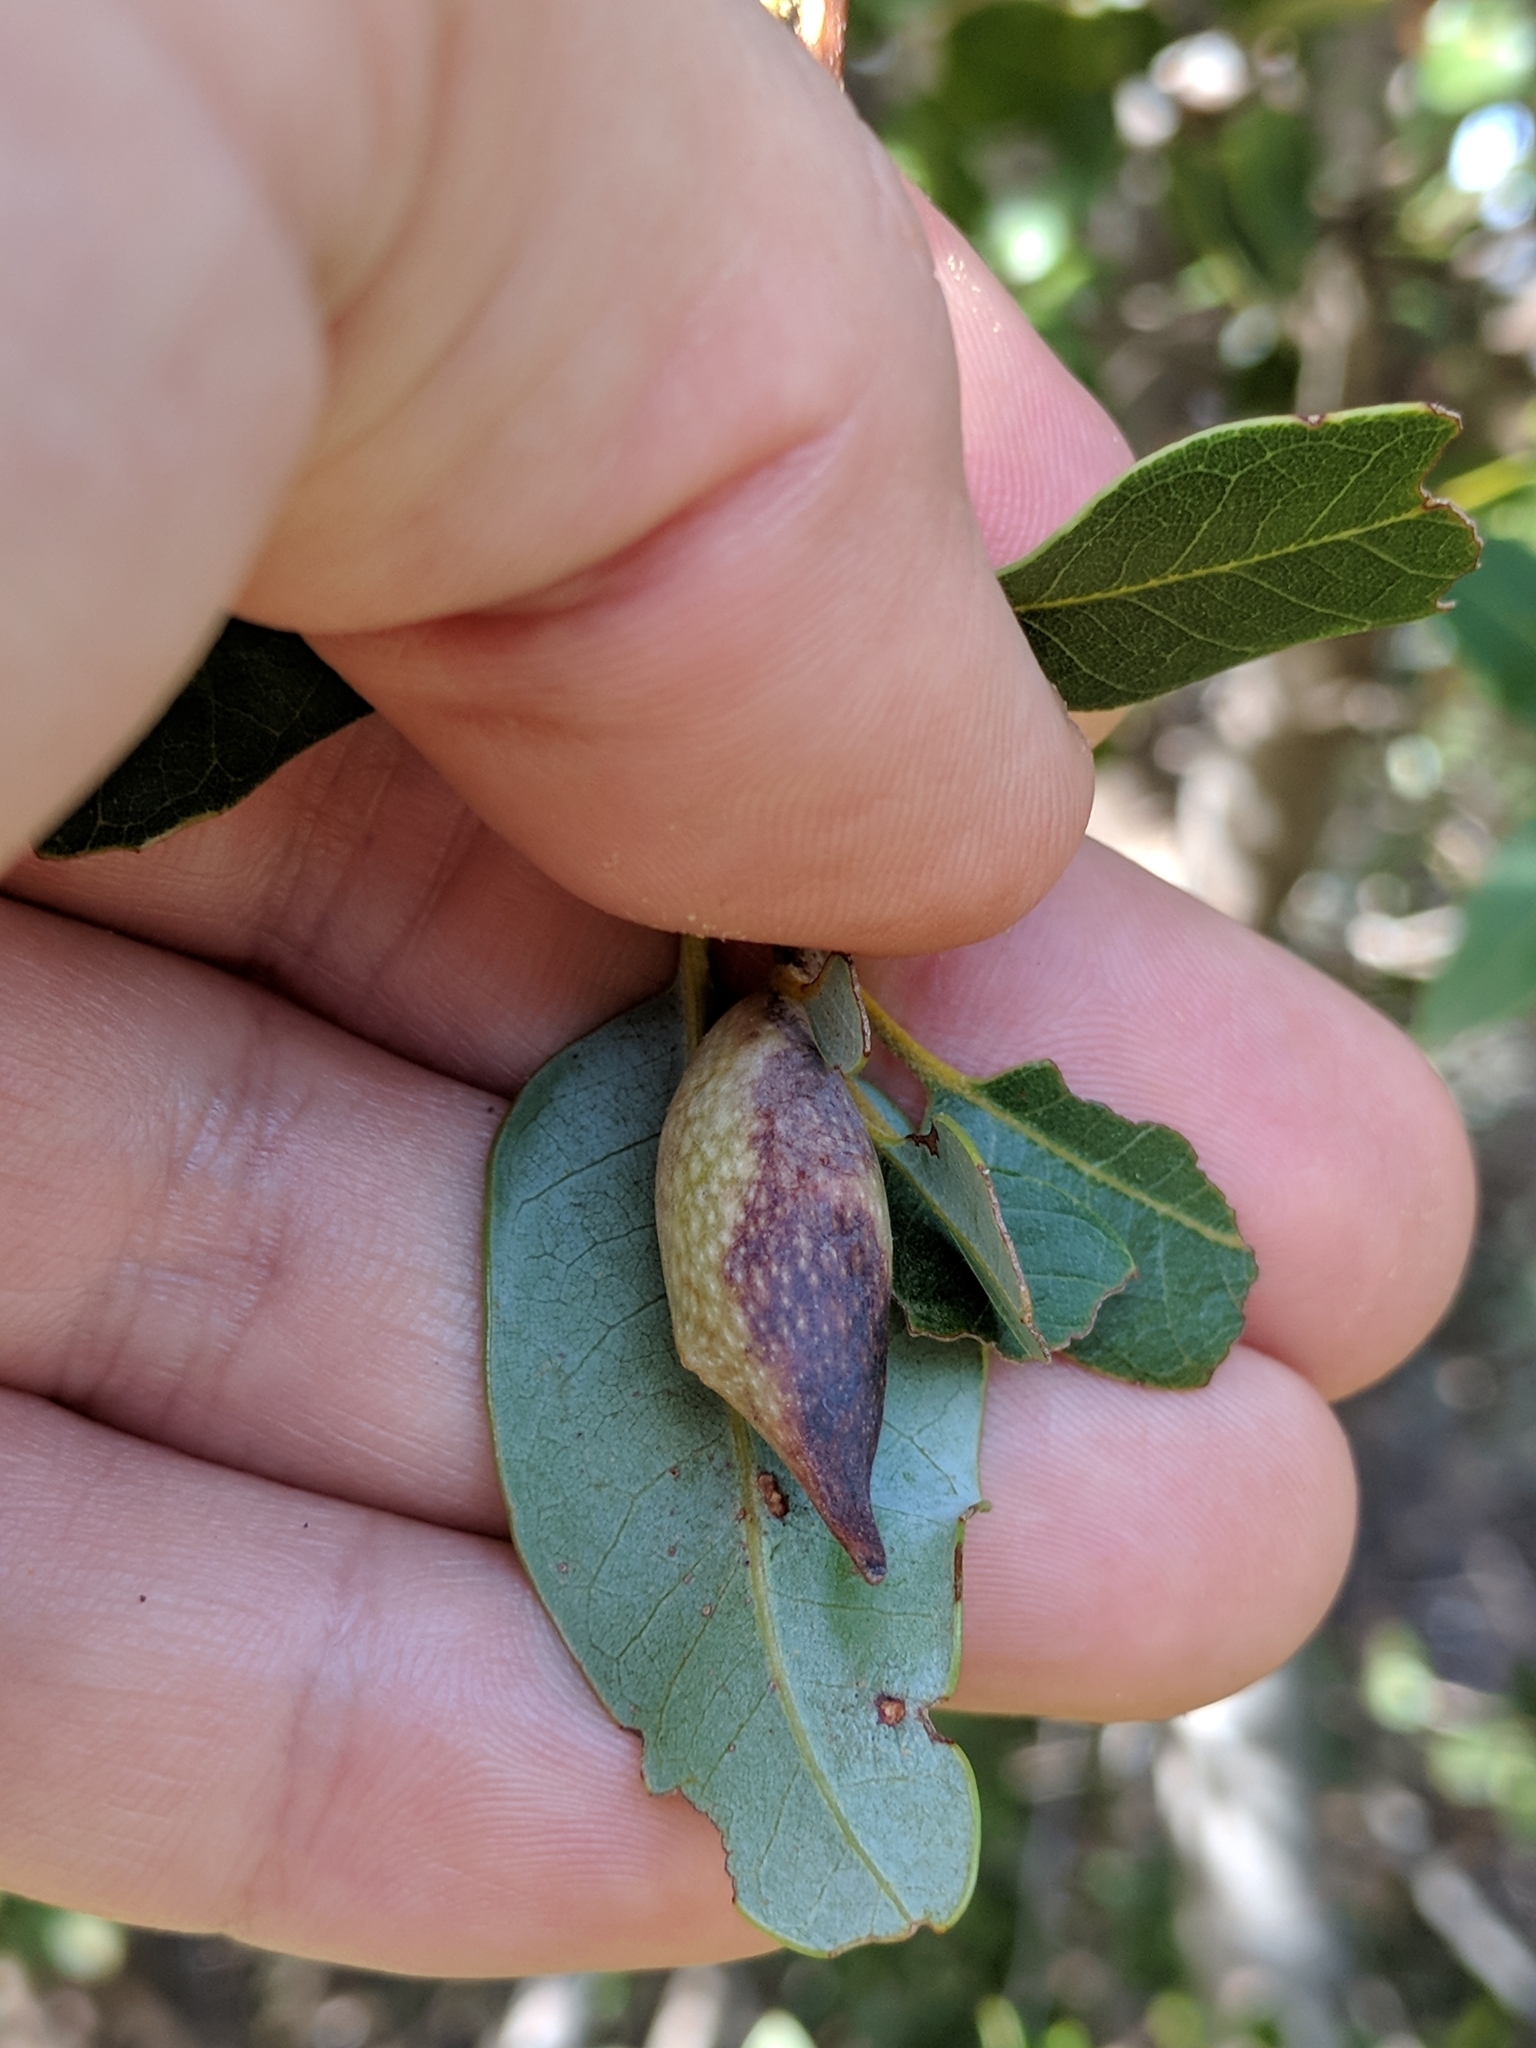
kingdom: Animalia
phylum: Arthropoda
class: Insecta
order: Hymenoptera
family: Cynipidae
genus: Heteroecus
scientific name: Heteroecus pacificus
